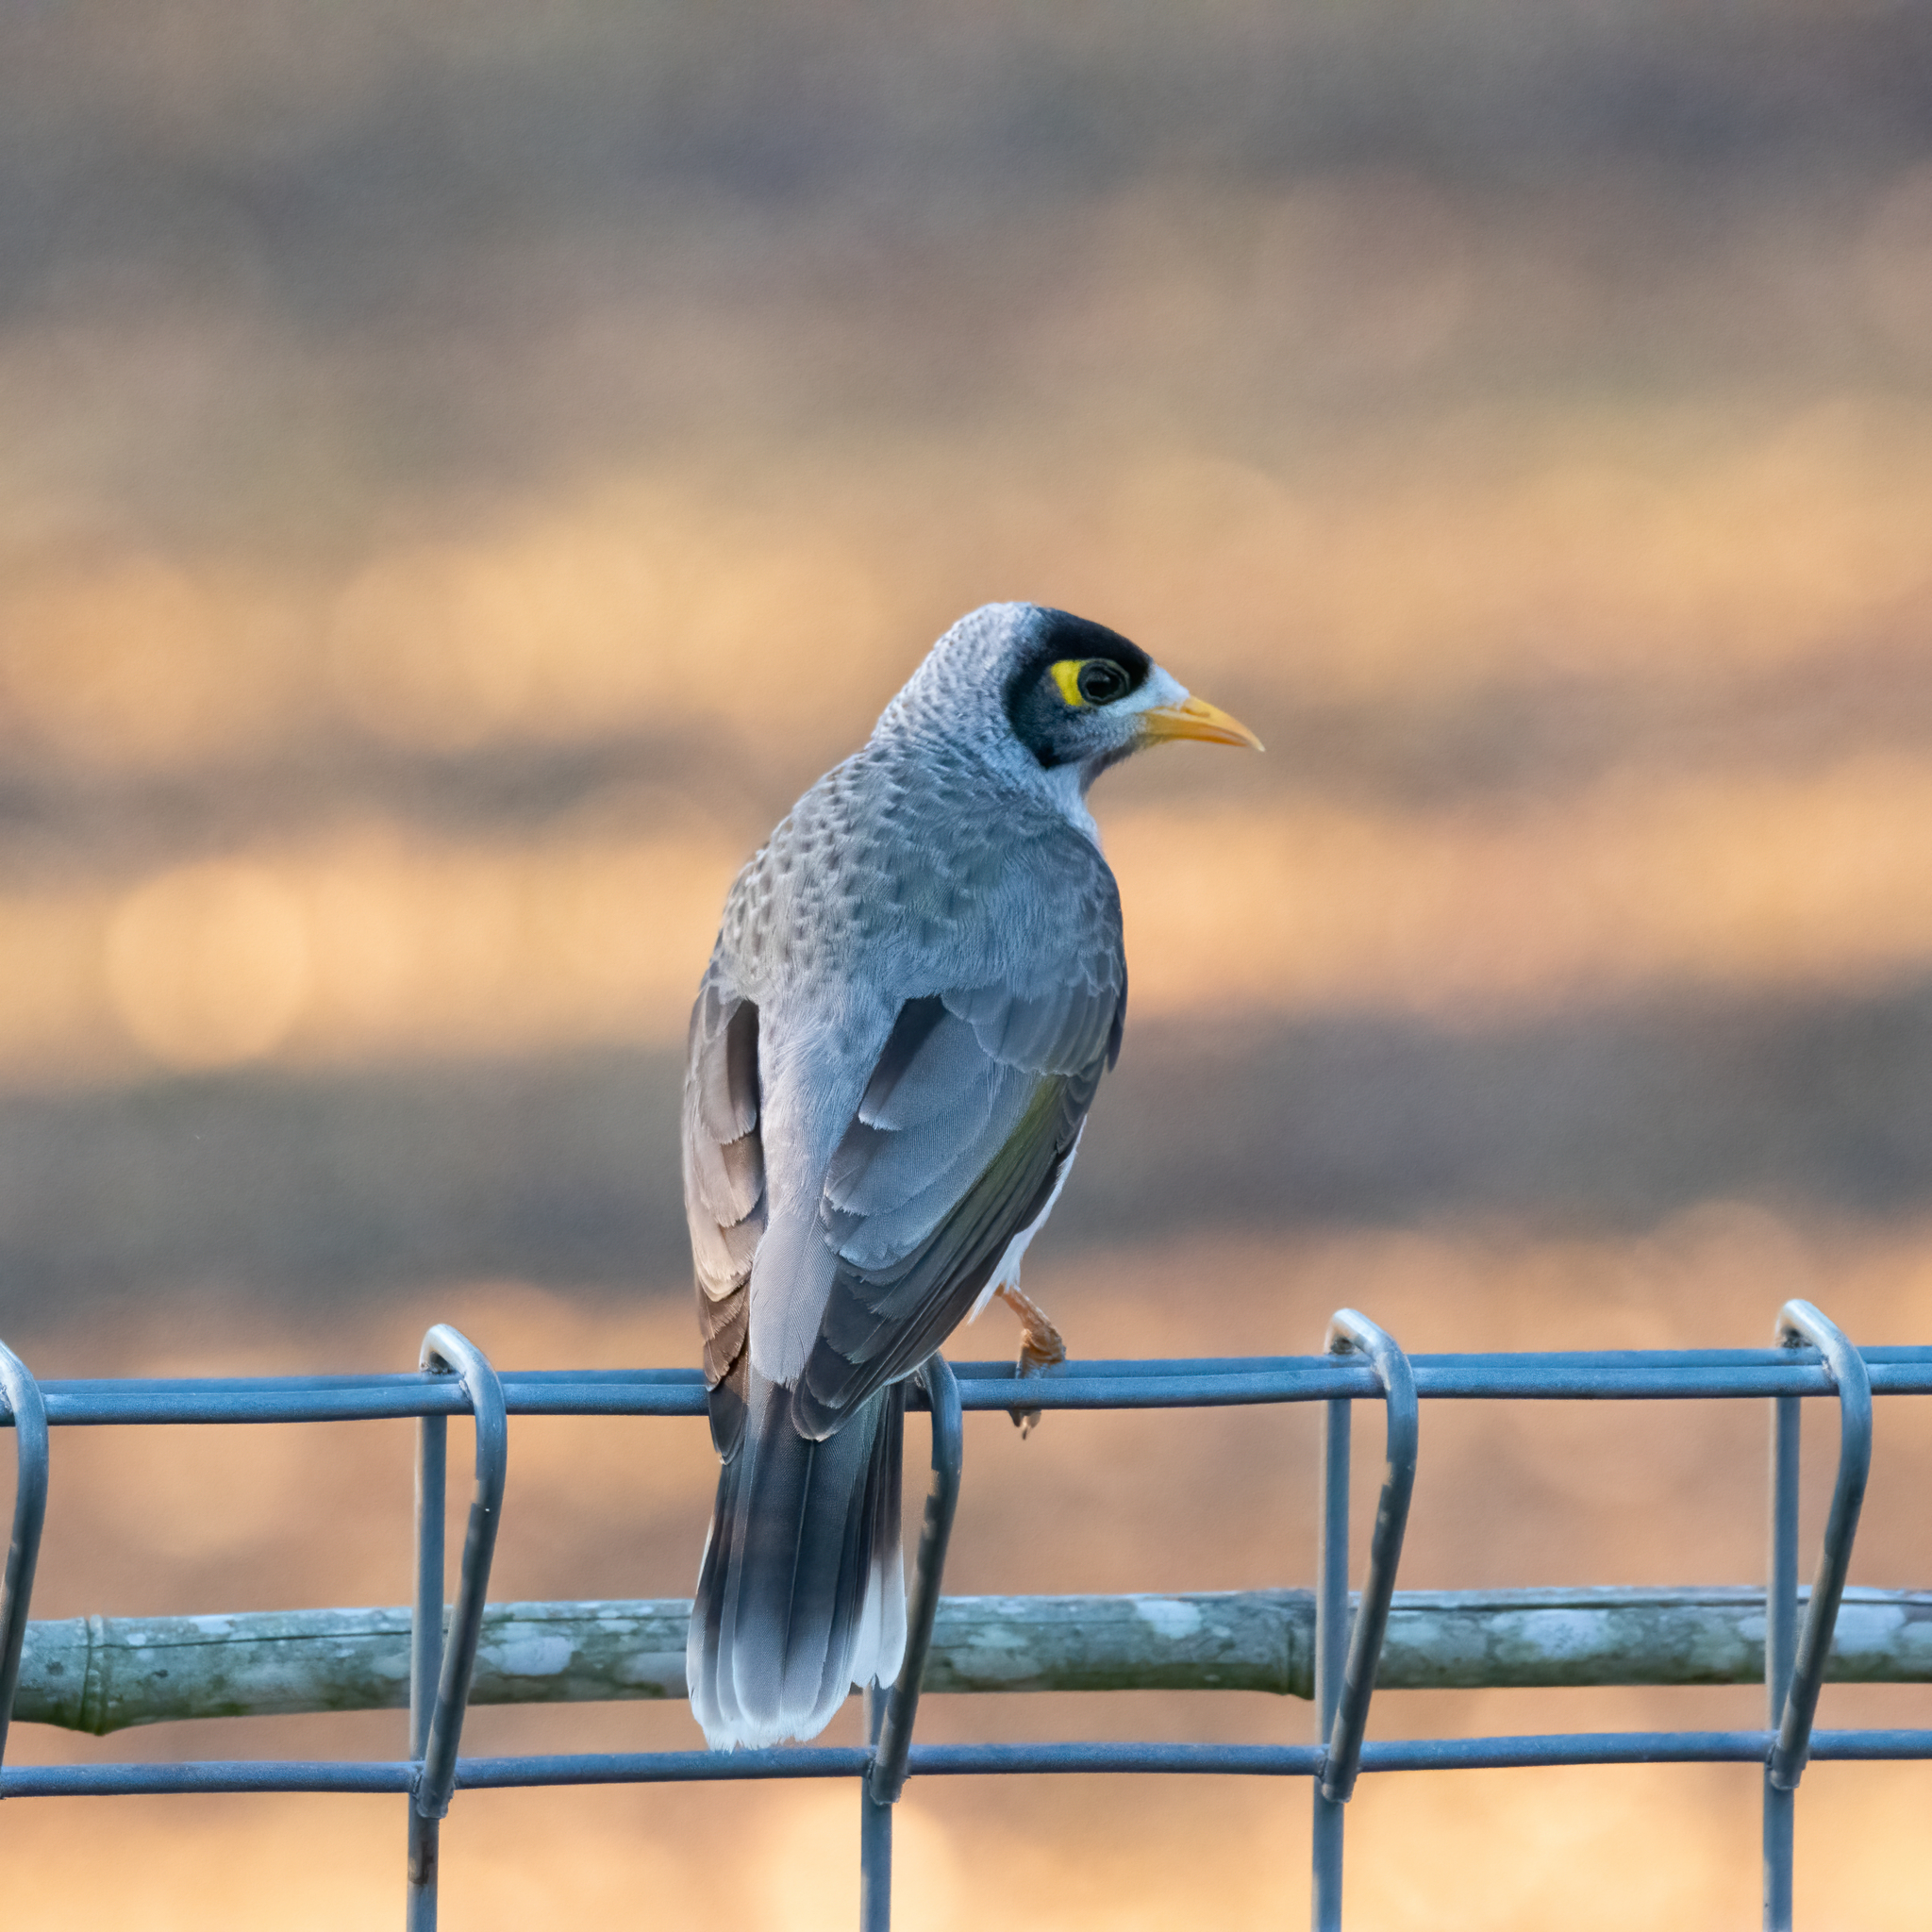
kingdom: Animalia
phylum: Chordata
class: Aves
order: Passeriformes
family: Meliphagidae
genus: Manorina
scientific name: Manorina melanocephala
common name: Noisy miner
